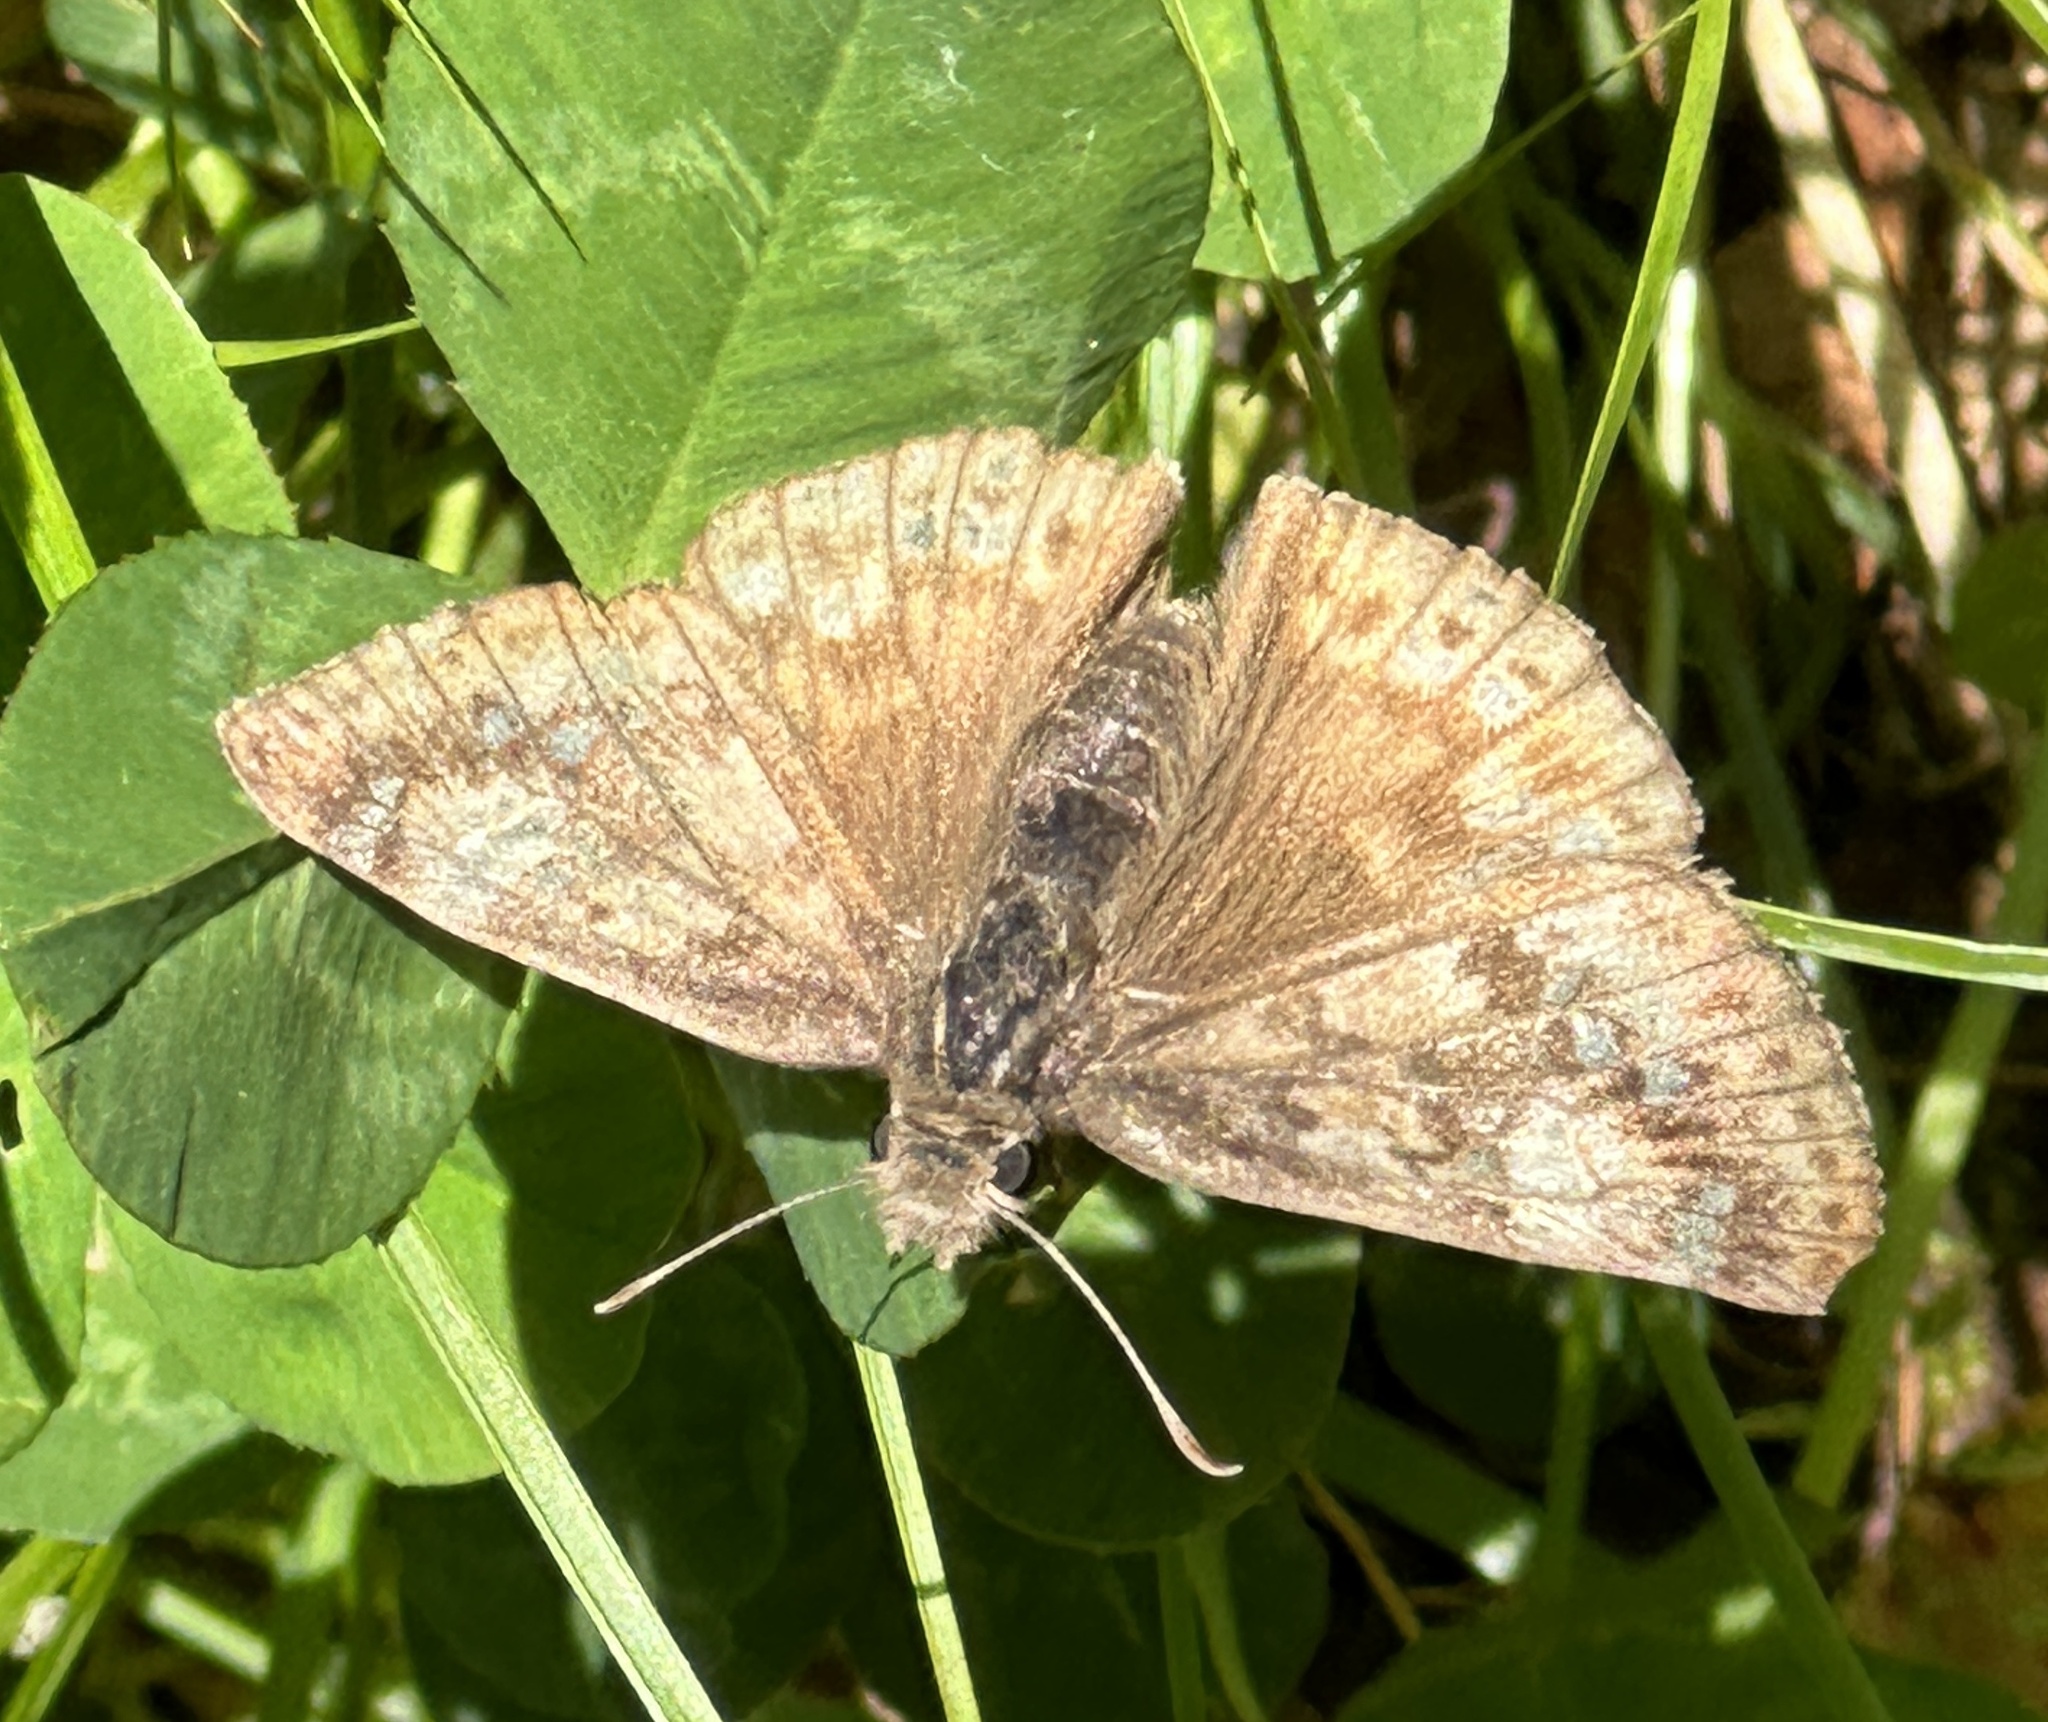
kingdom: Animalia
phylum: Arthropoda
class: Insecta
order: Lepidoptera
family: Hesperiidae
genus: Erynnis
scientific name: Erynnis juvenalis
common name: Juvenal's duskywing
